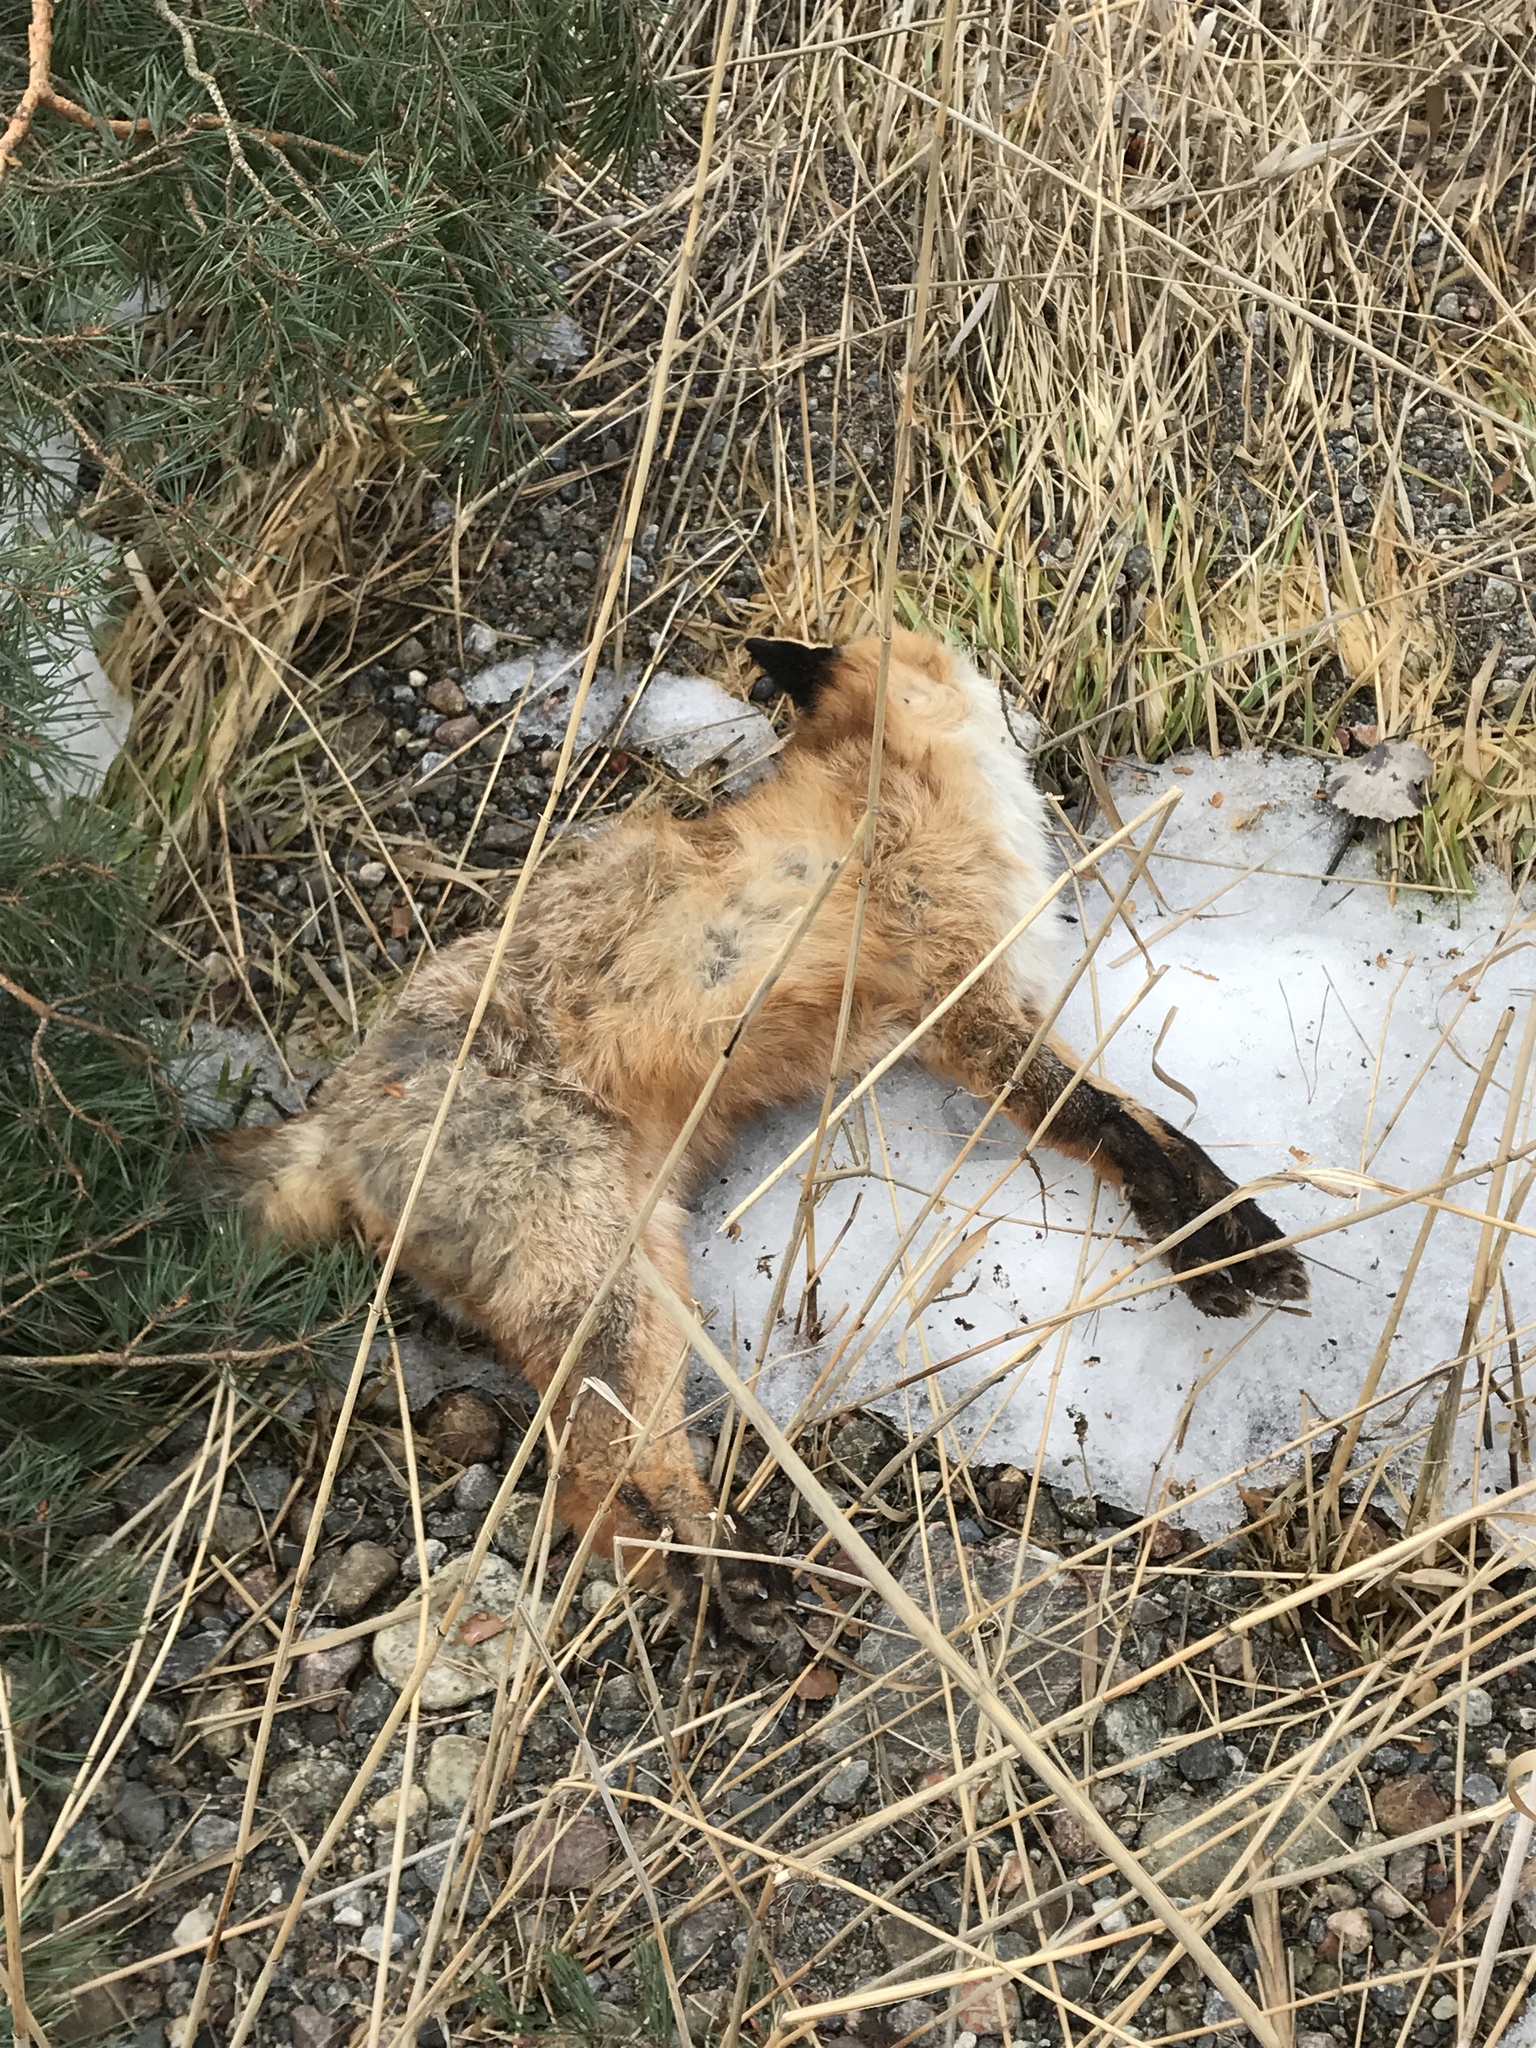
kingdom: Animalia
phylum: Chordata
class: Mammalia
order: Carnivora
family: Canidae
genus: Vulpes
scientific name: Vulpes vulpes
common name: Red fox
